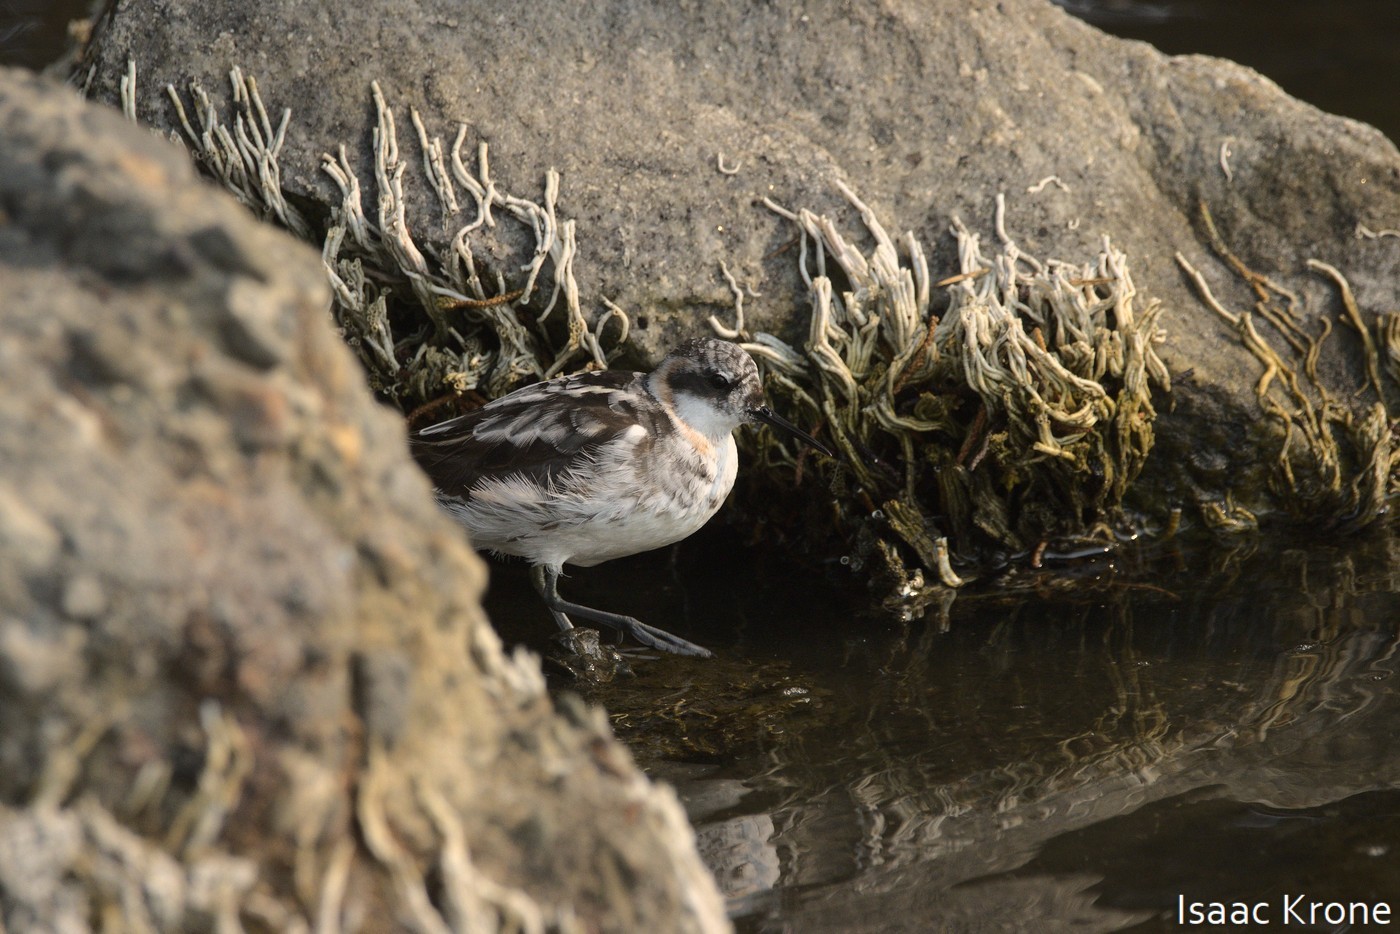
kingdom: Animalia
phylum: Chordata
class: Aves
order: Charadriiformes
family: Scolopacidae
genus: Phalaropus
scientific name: Phalaropus lobatus
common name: Red-necked phalarope
